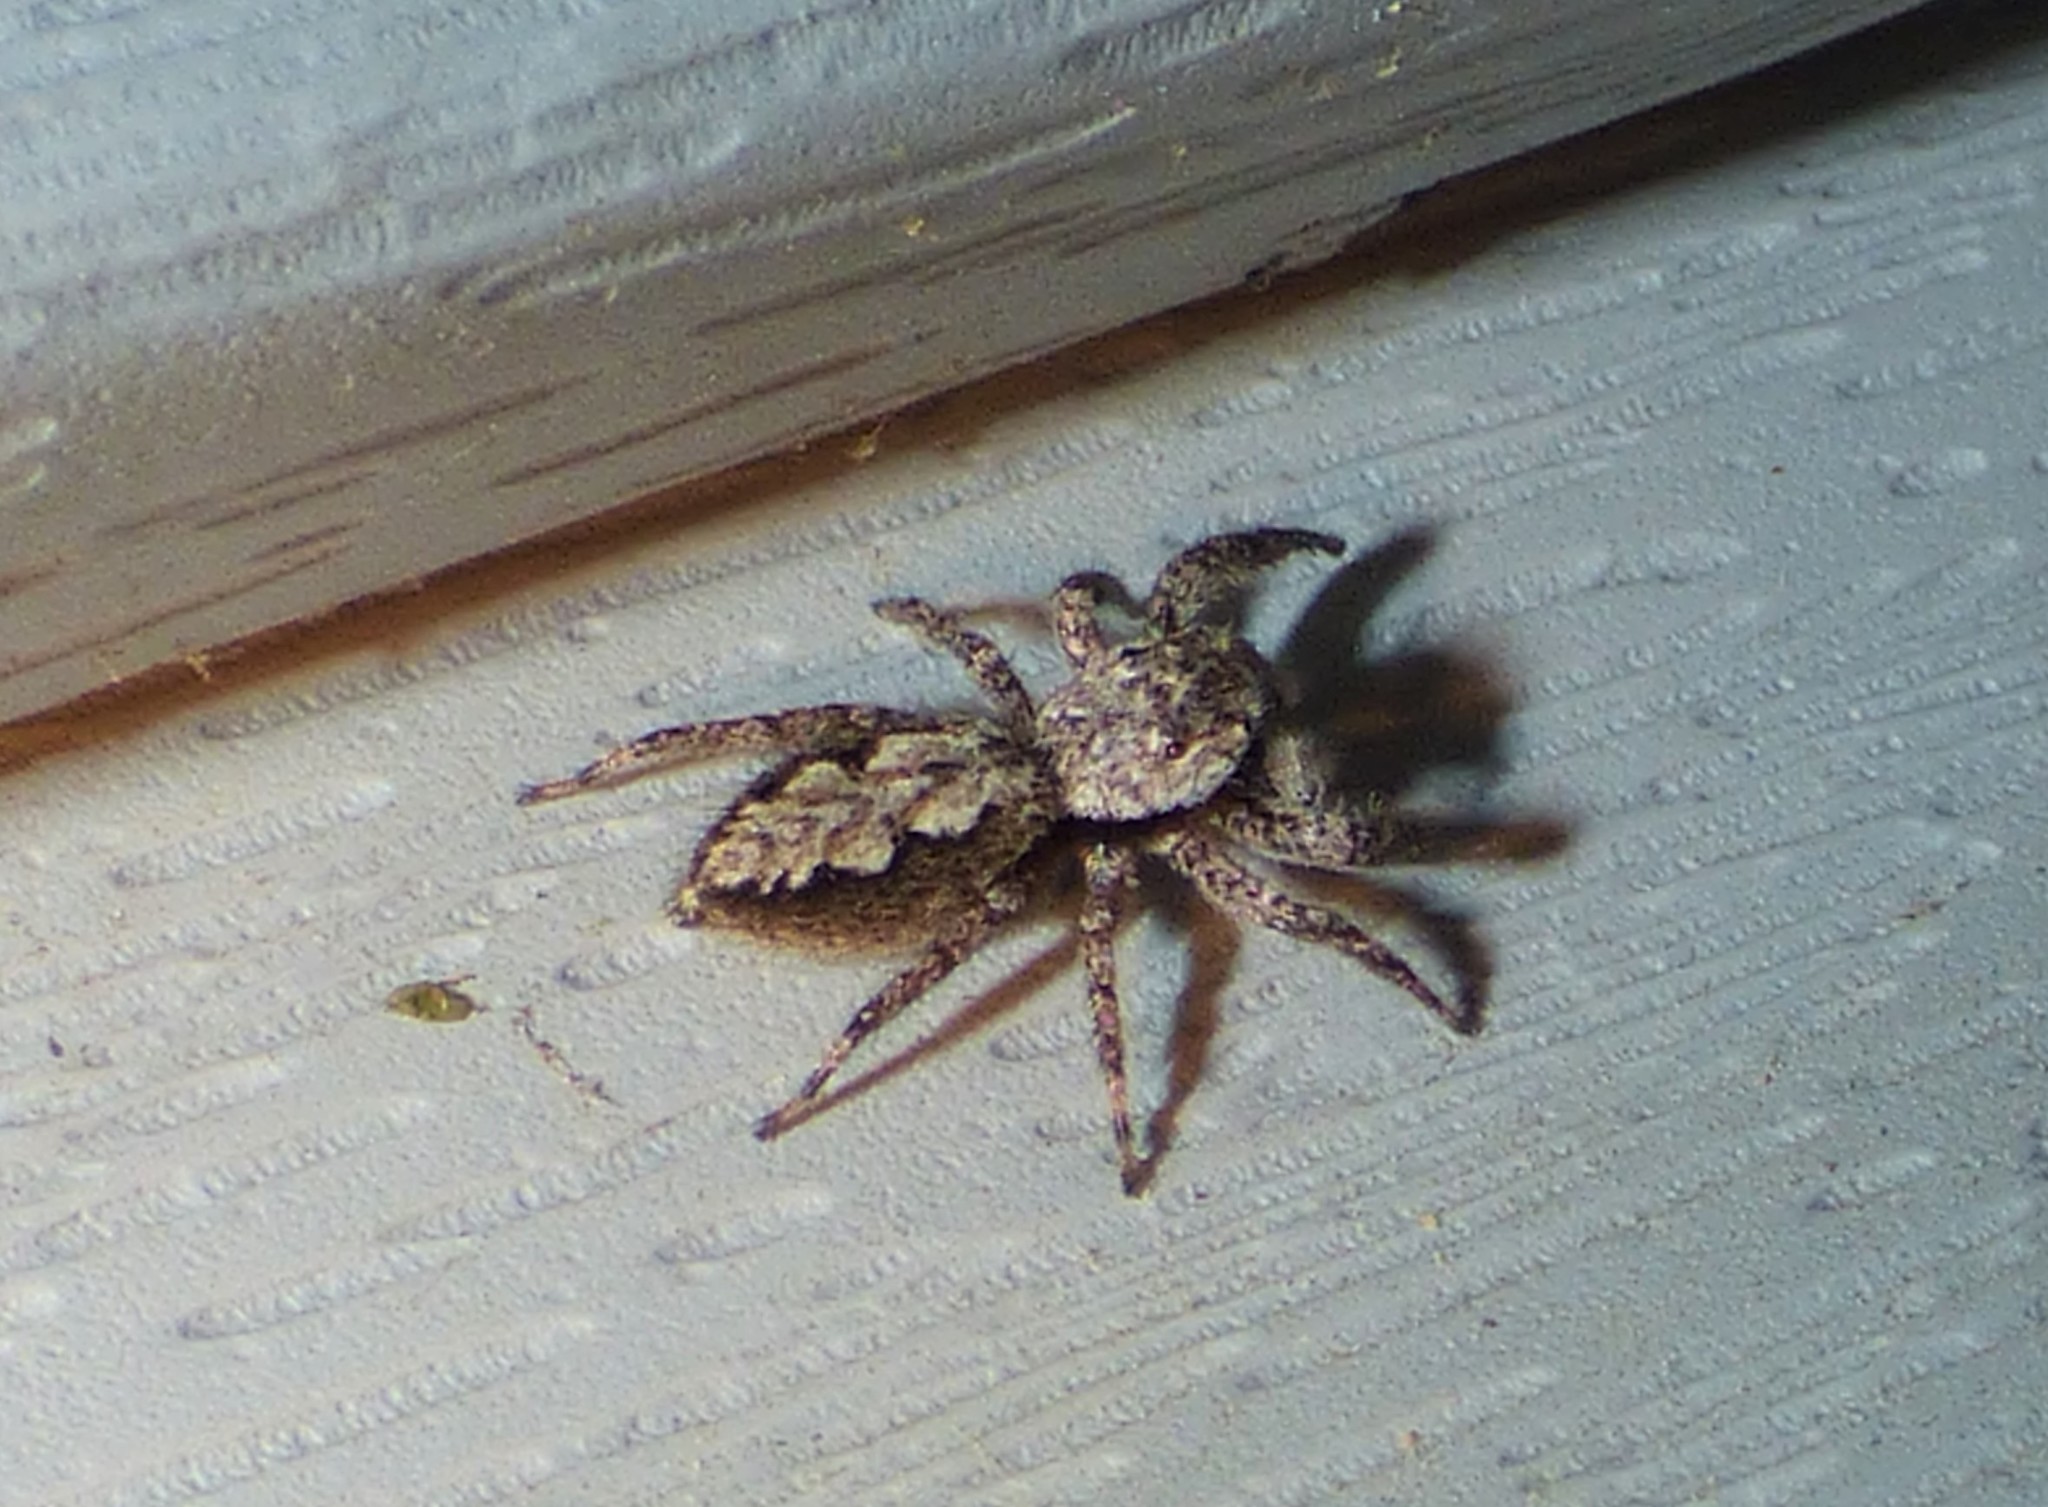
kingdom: Animalia
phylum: Arthropoda
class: Arachnida
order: Araneae
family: Salticidae
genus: Platycryptus
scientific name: Platycryptus undatus
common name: Tan jumping spider
